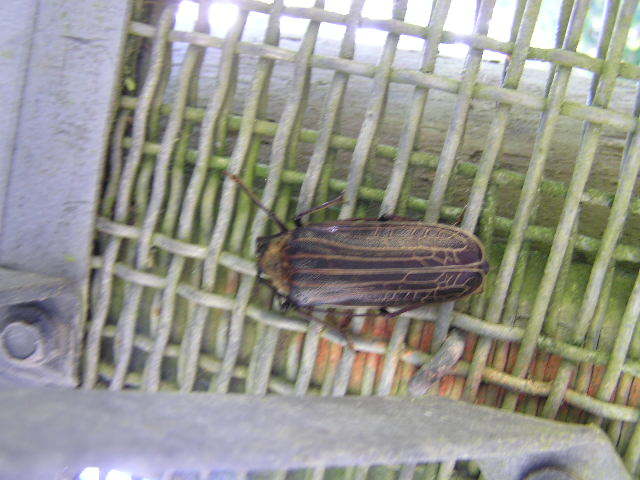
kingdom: Animalia
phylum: Arthropoda
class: Insecta
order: Coleoptera
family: Cerambycidae
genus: Prionoplus
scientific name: Prionoplus reticularis
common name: Huhu beetle
